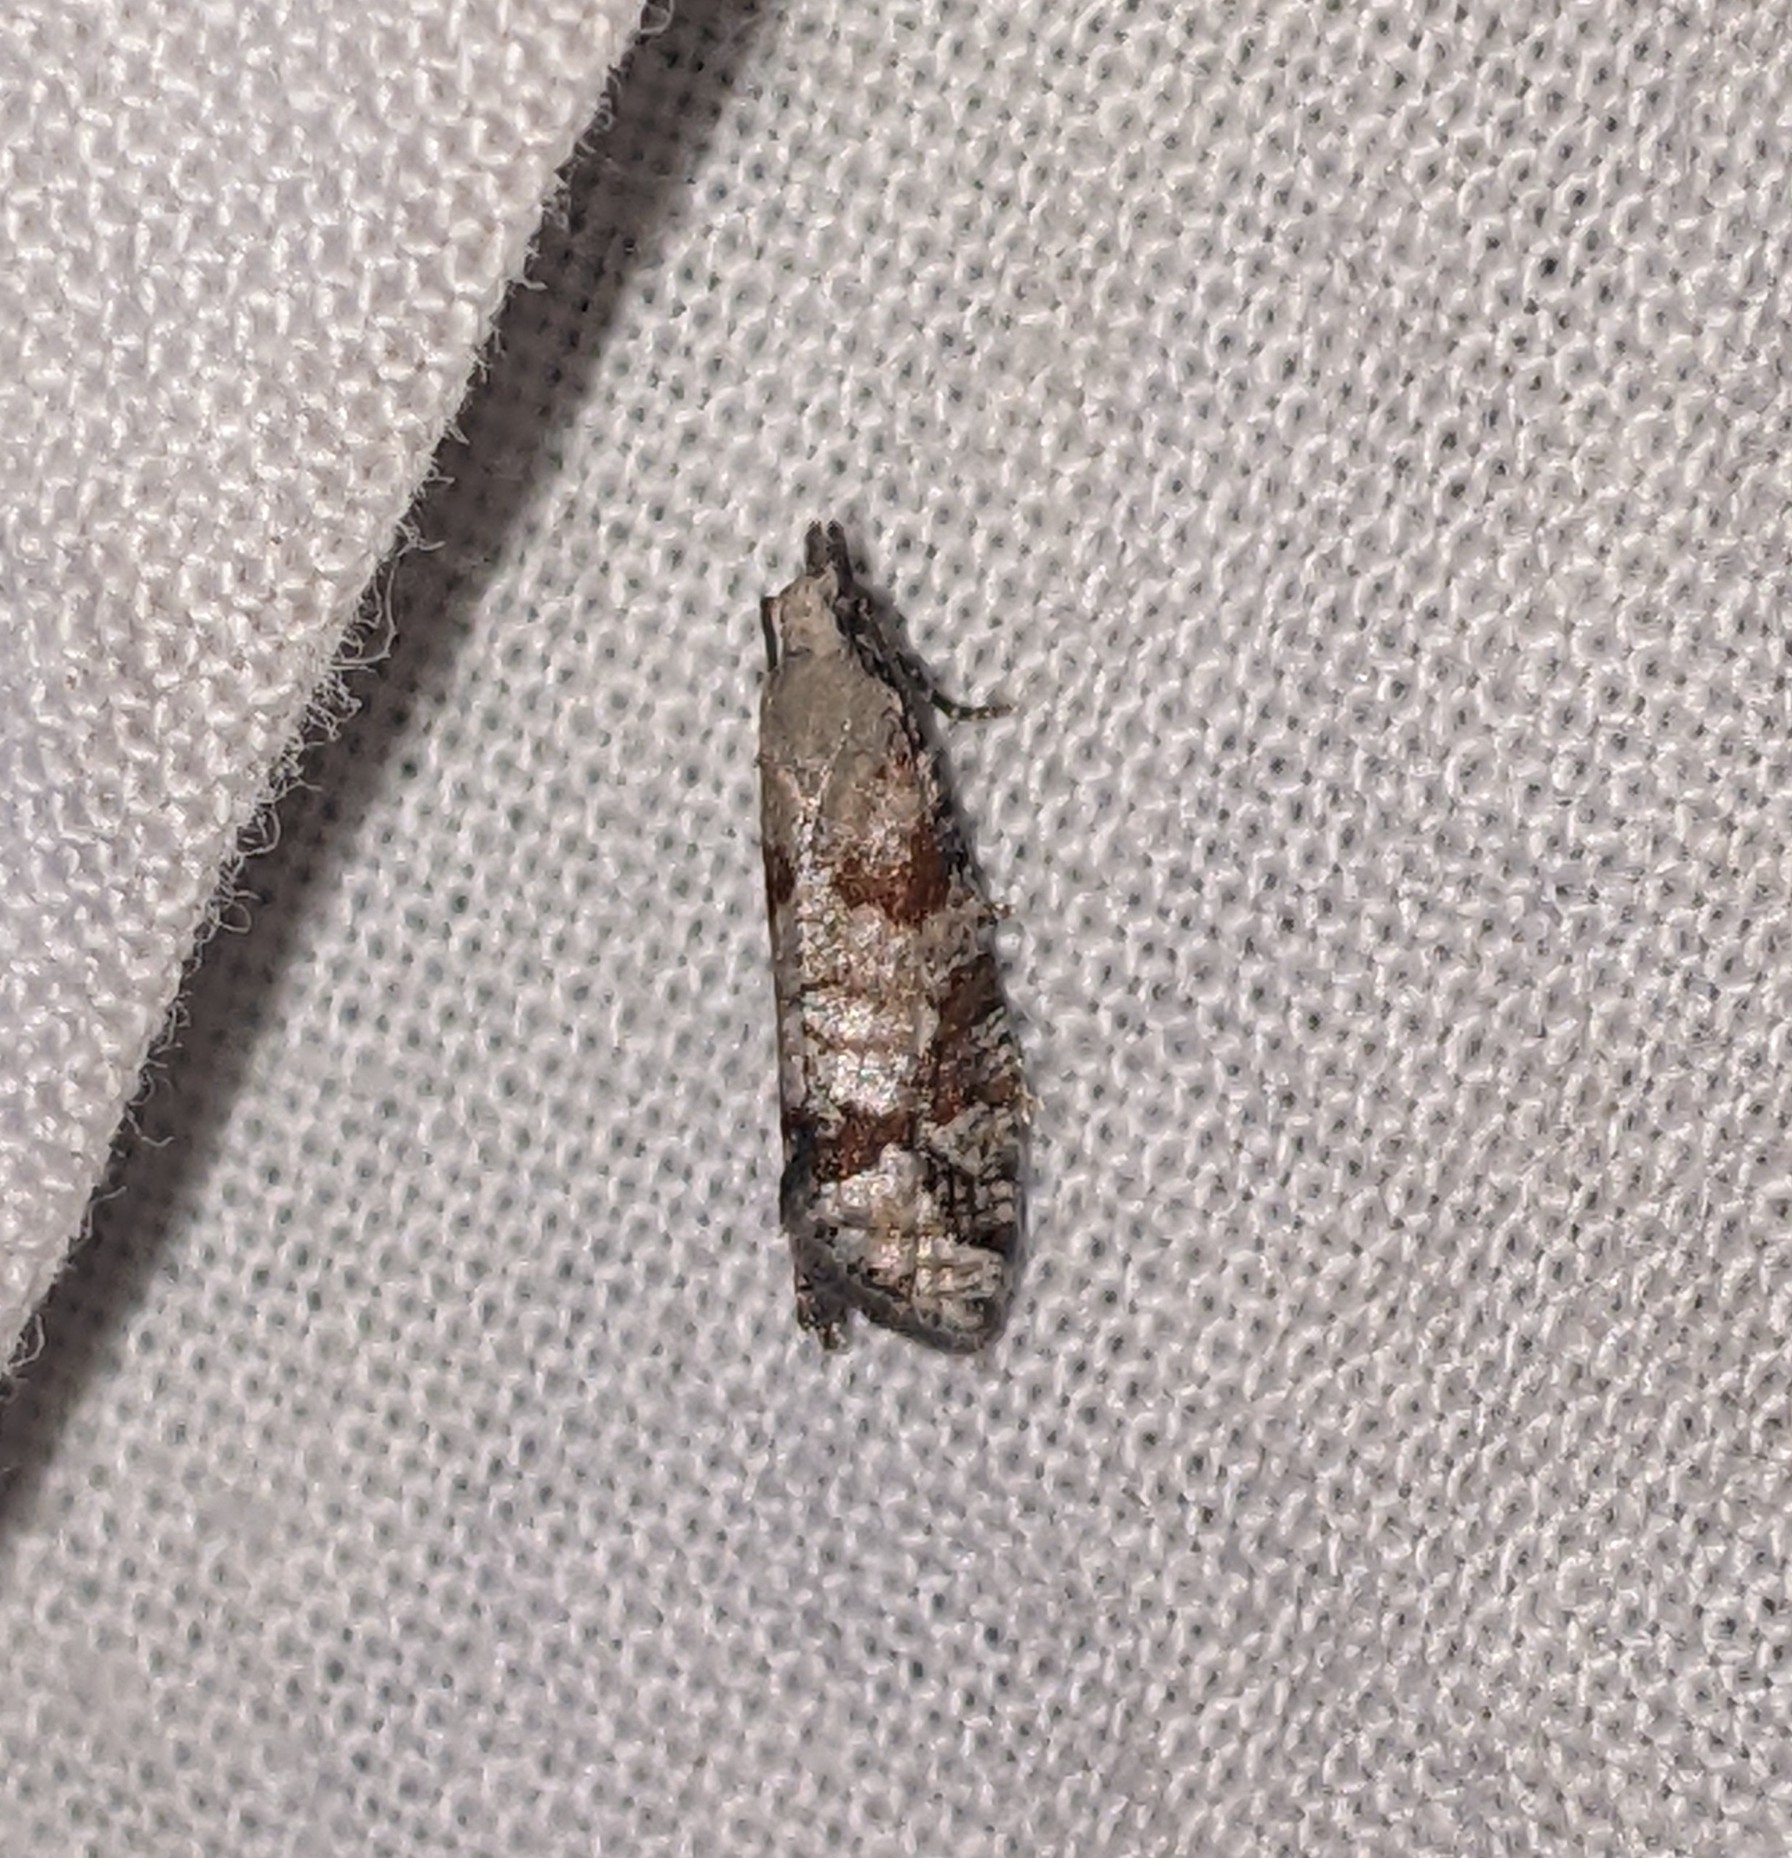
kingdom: Animalia
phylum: Arthropoda
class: Insecta
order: Lepidoptera
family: Tortricidae
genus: Epinotia
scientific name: Epinotia radicana
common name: Red-striped needleworm moth
